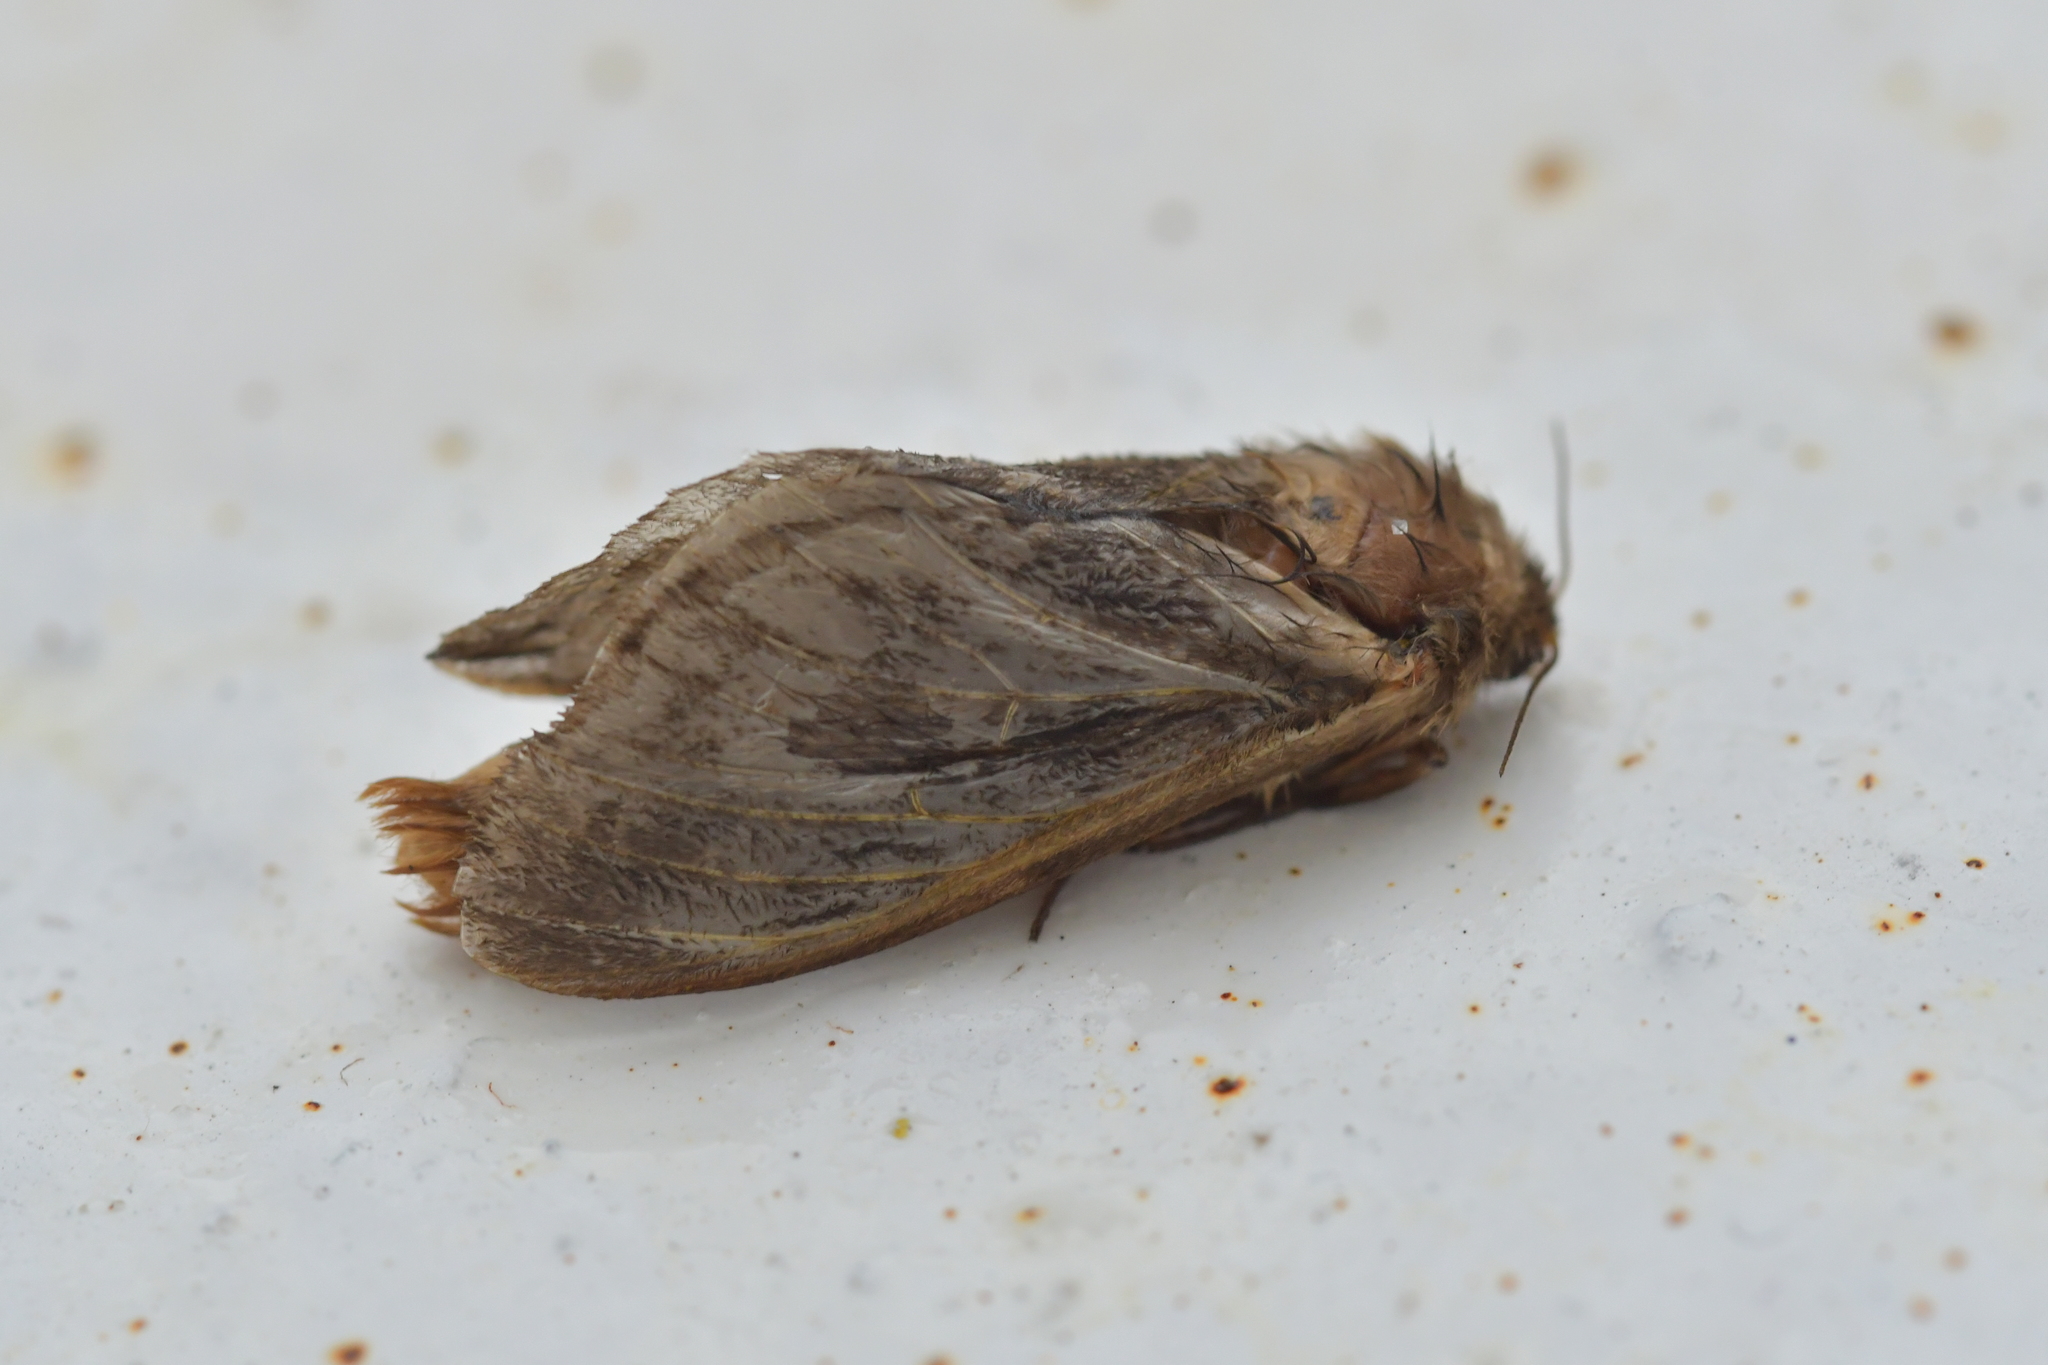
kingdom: Animalia
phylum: Arthropoda
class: Insecta
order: Lepidoptera
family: Hepialidae
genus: Wiseana
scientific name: Wiseana cervinata
